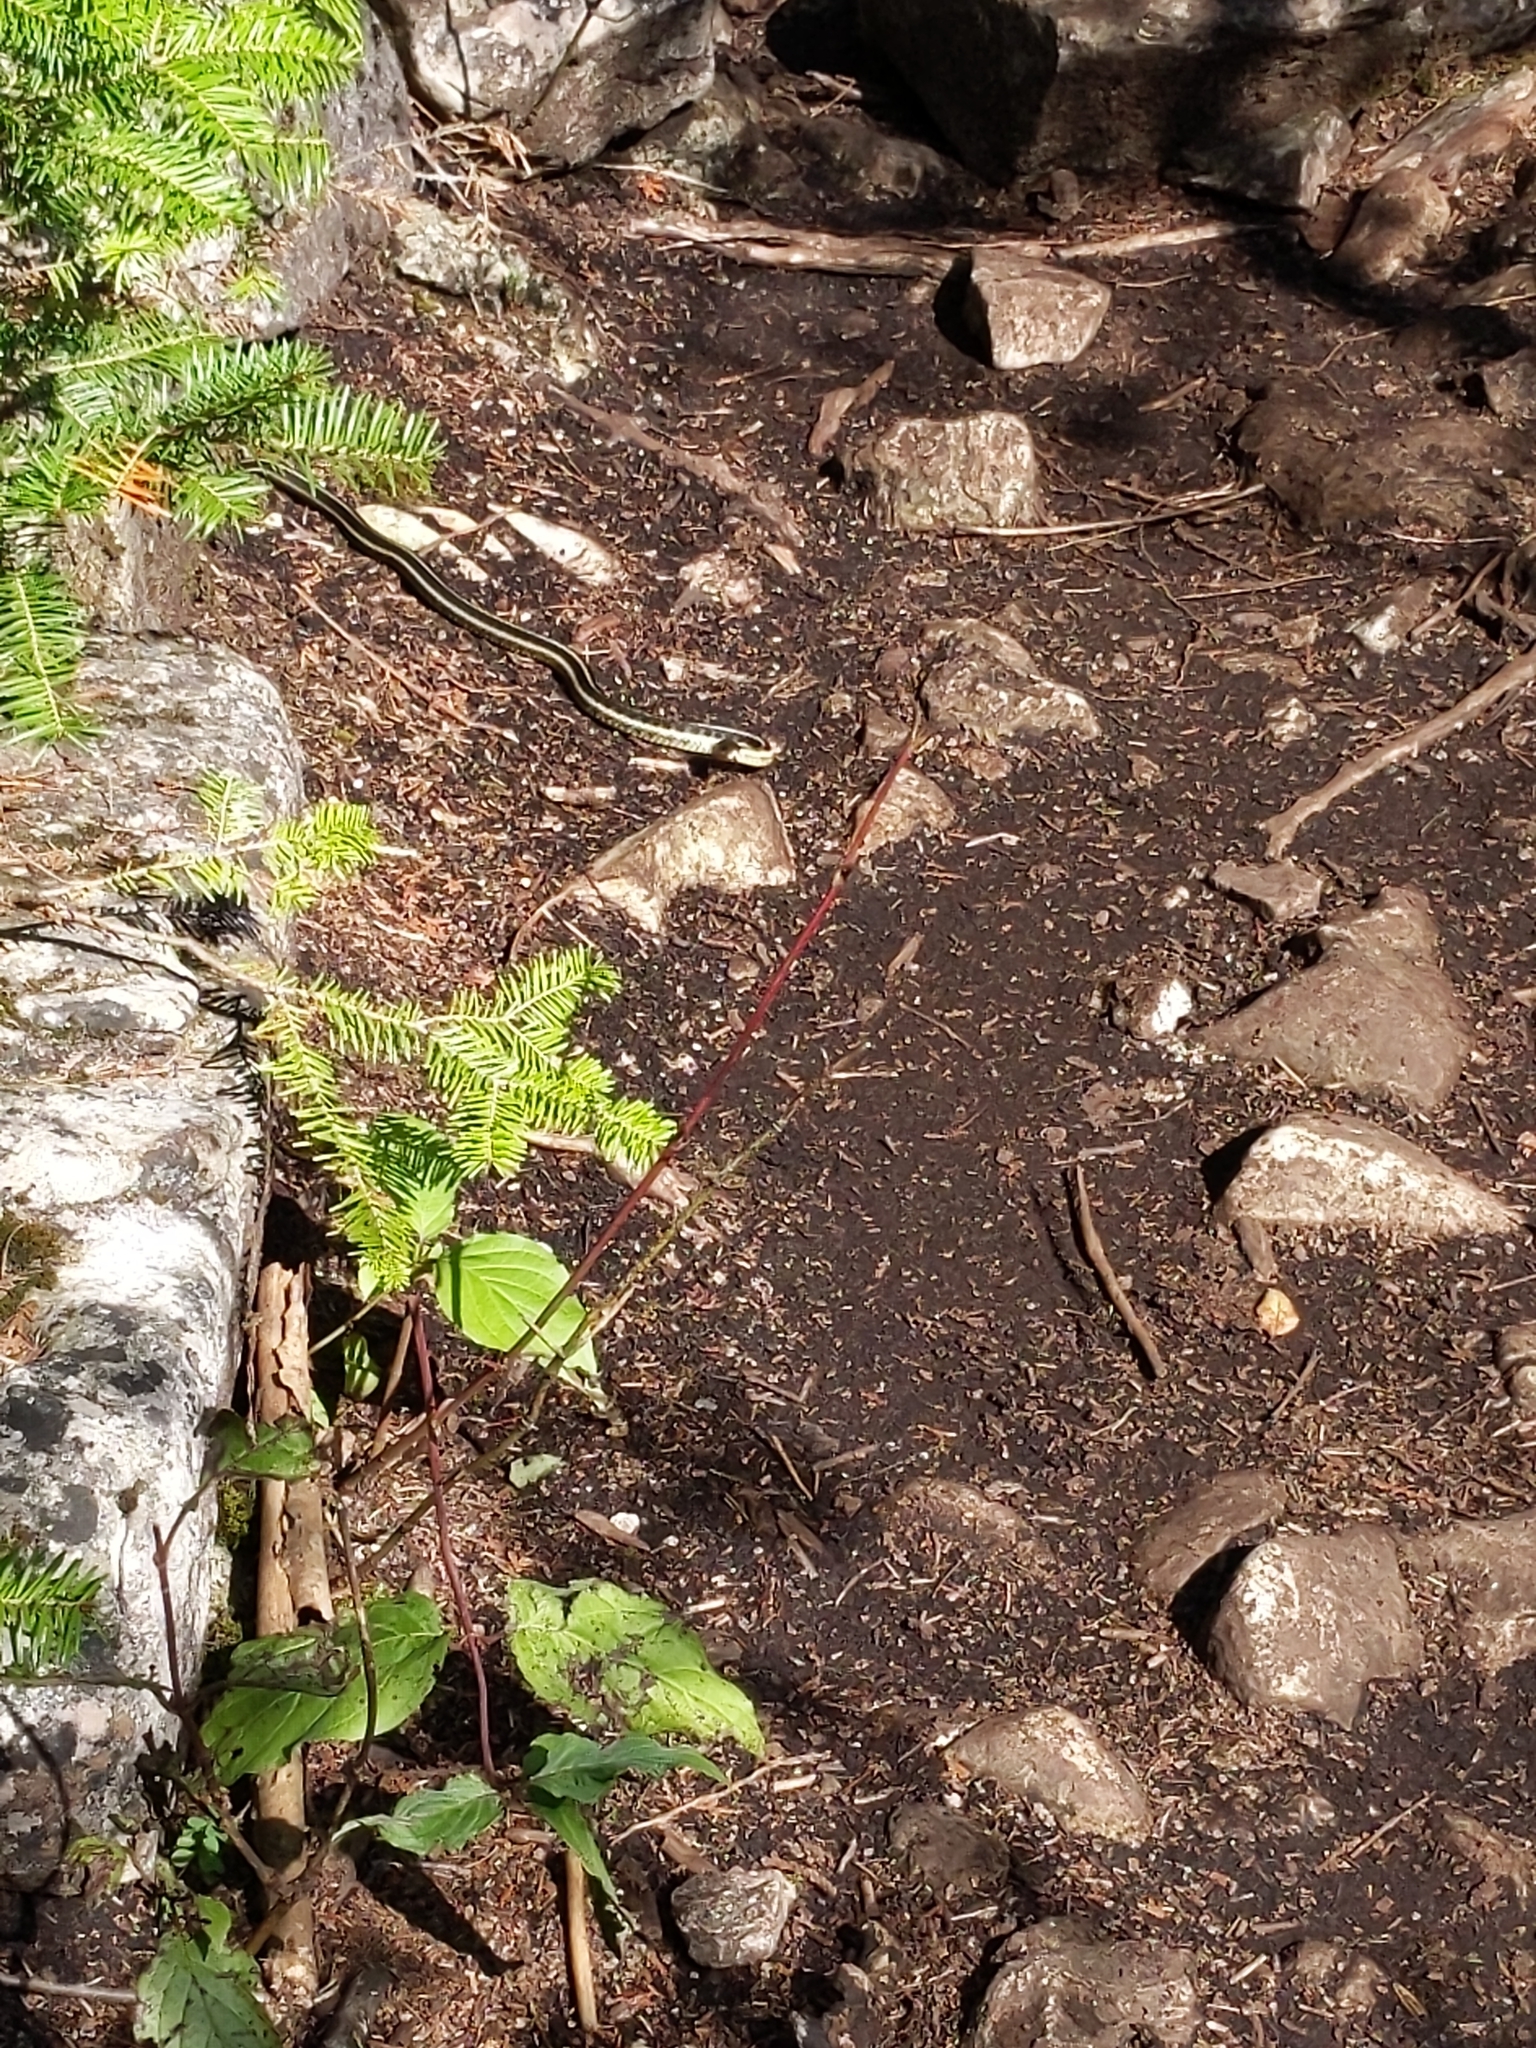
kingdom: Animalia
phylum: Chordata
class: Squamata
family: Colubridae
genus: Thamnophis
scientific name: Thamnophis sirtalis
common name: Common garter snake
